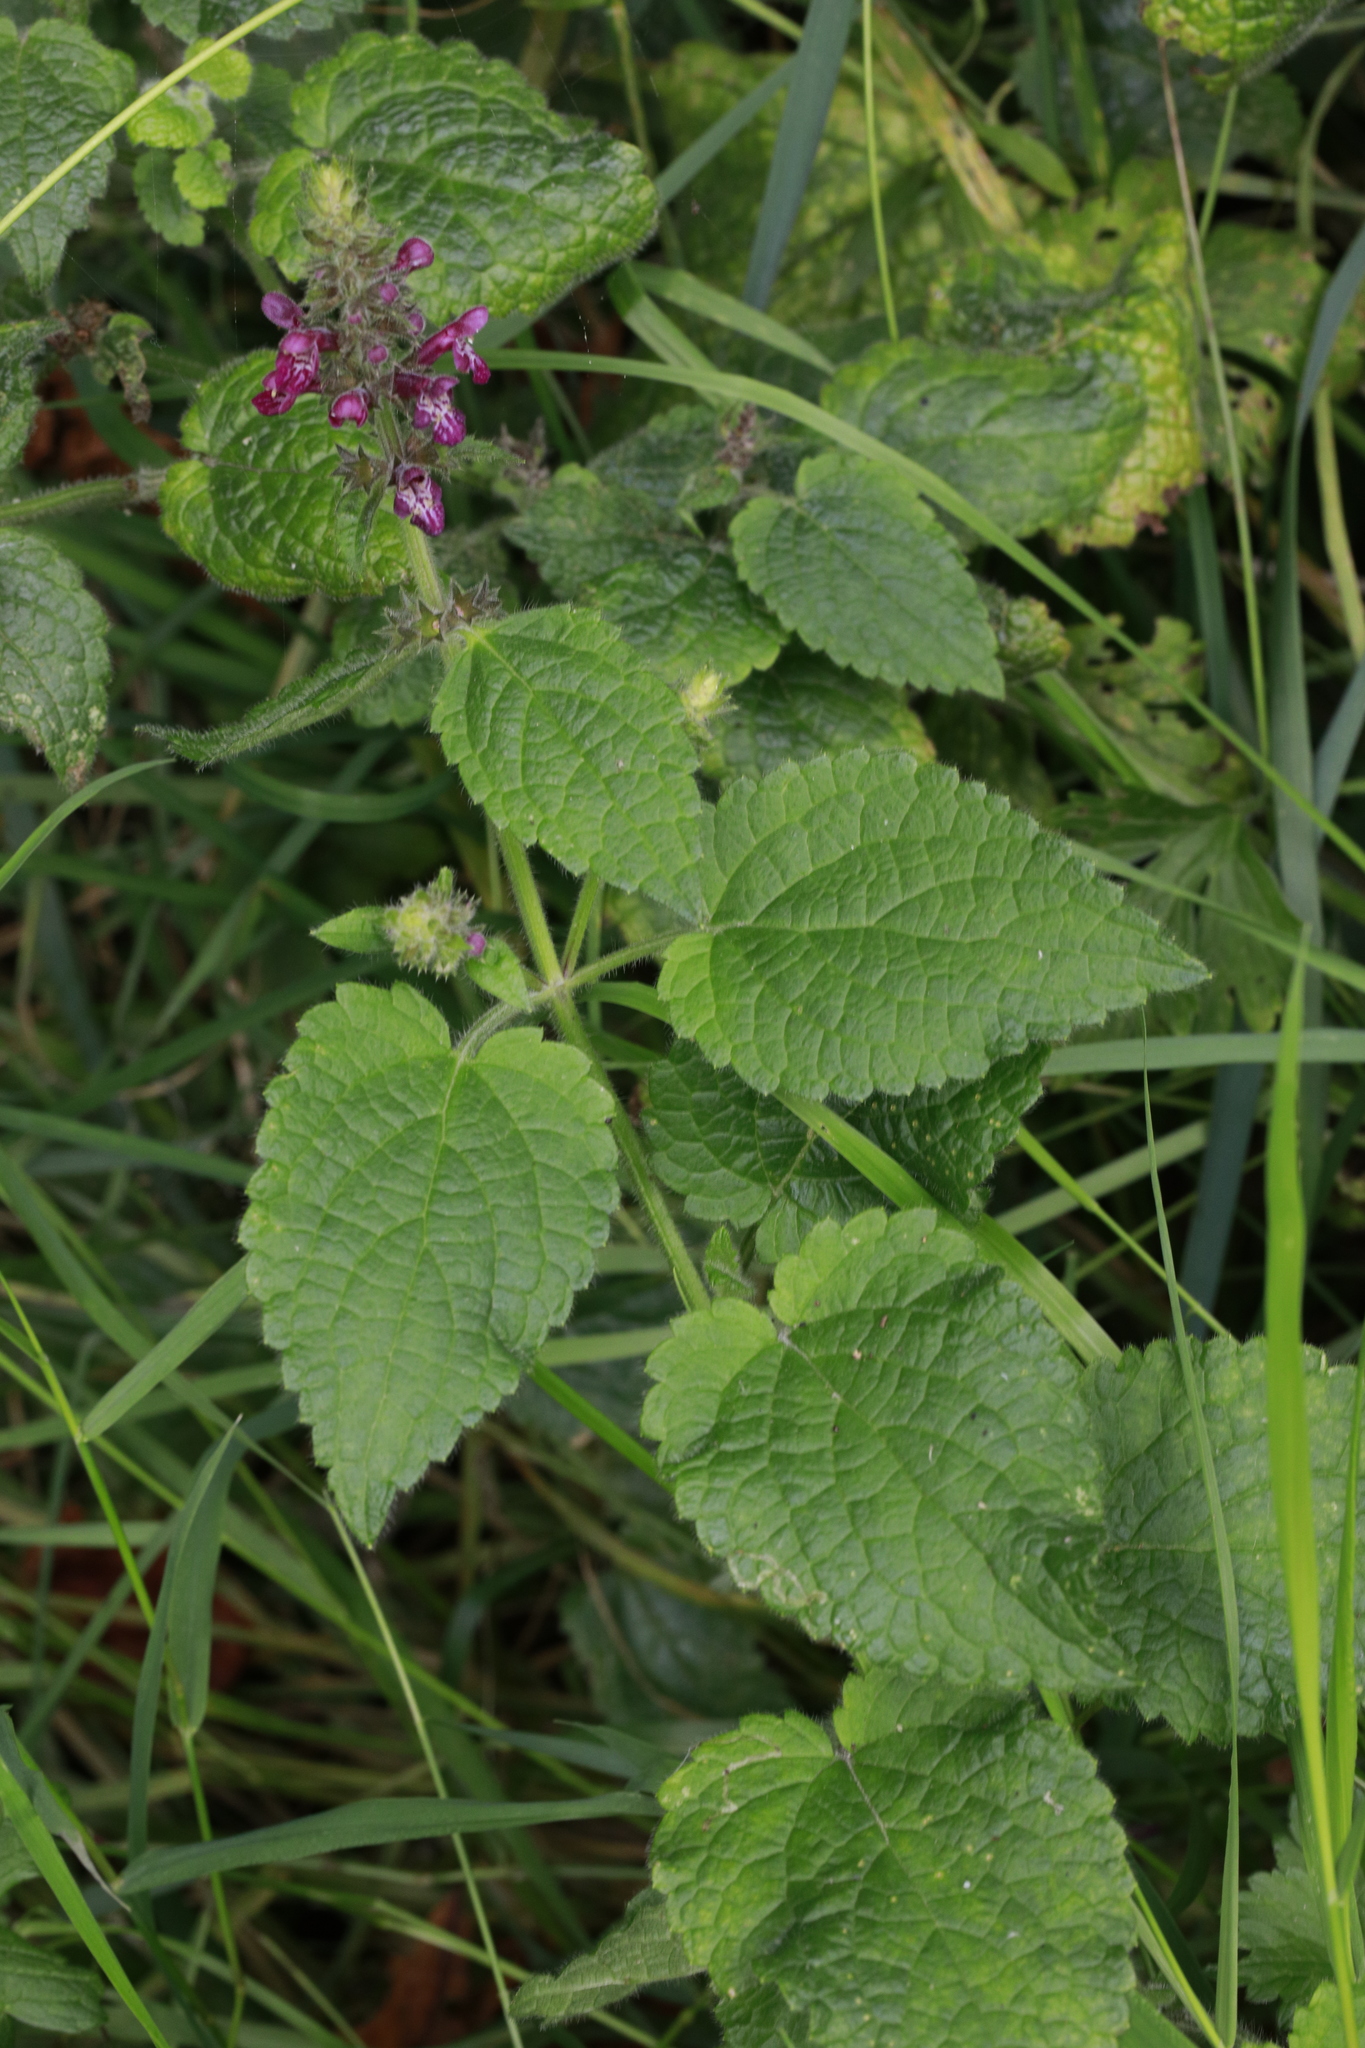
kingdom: Plantae
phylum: Tracheophyta
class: Magnoliopsida
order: Lamiales
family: Lamiaceae
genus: Stachys
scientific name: Stachys sylvatica
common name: Hedge woundwort
